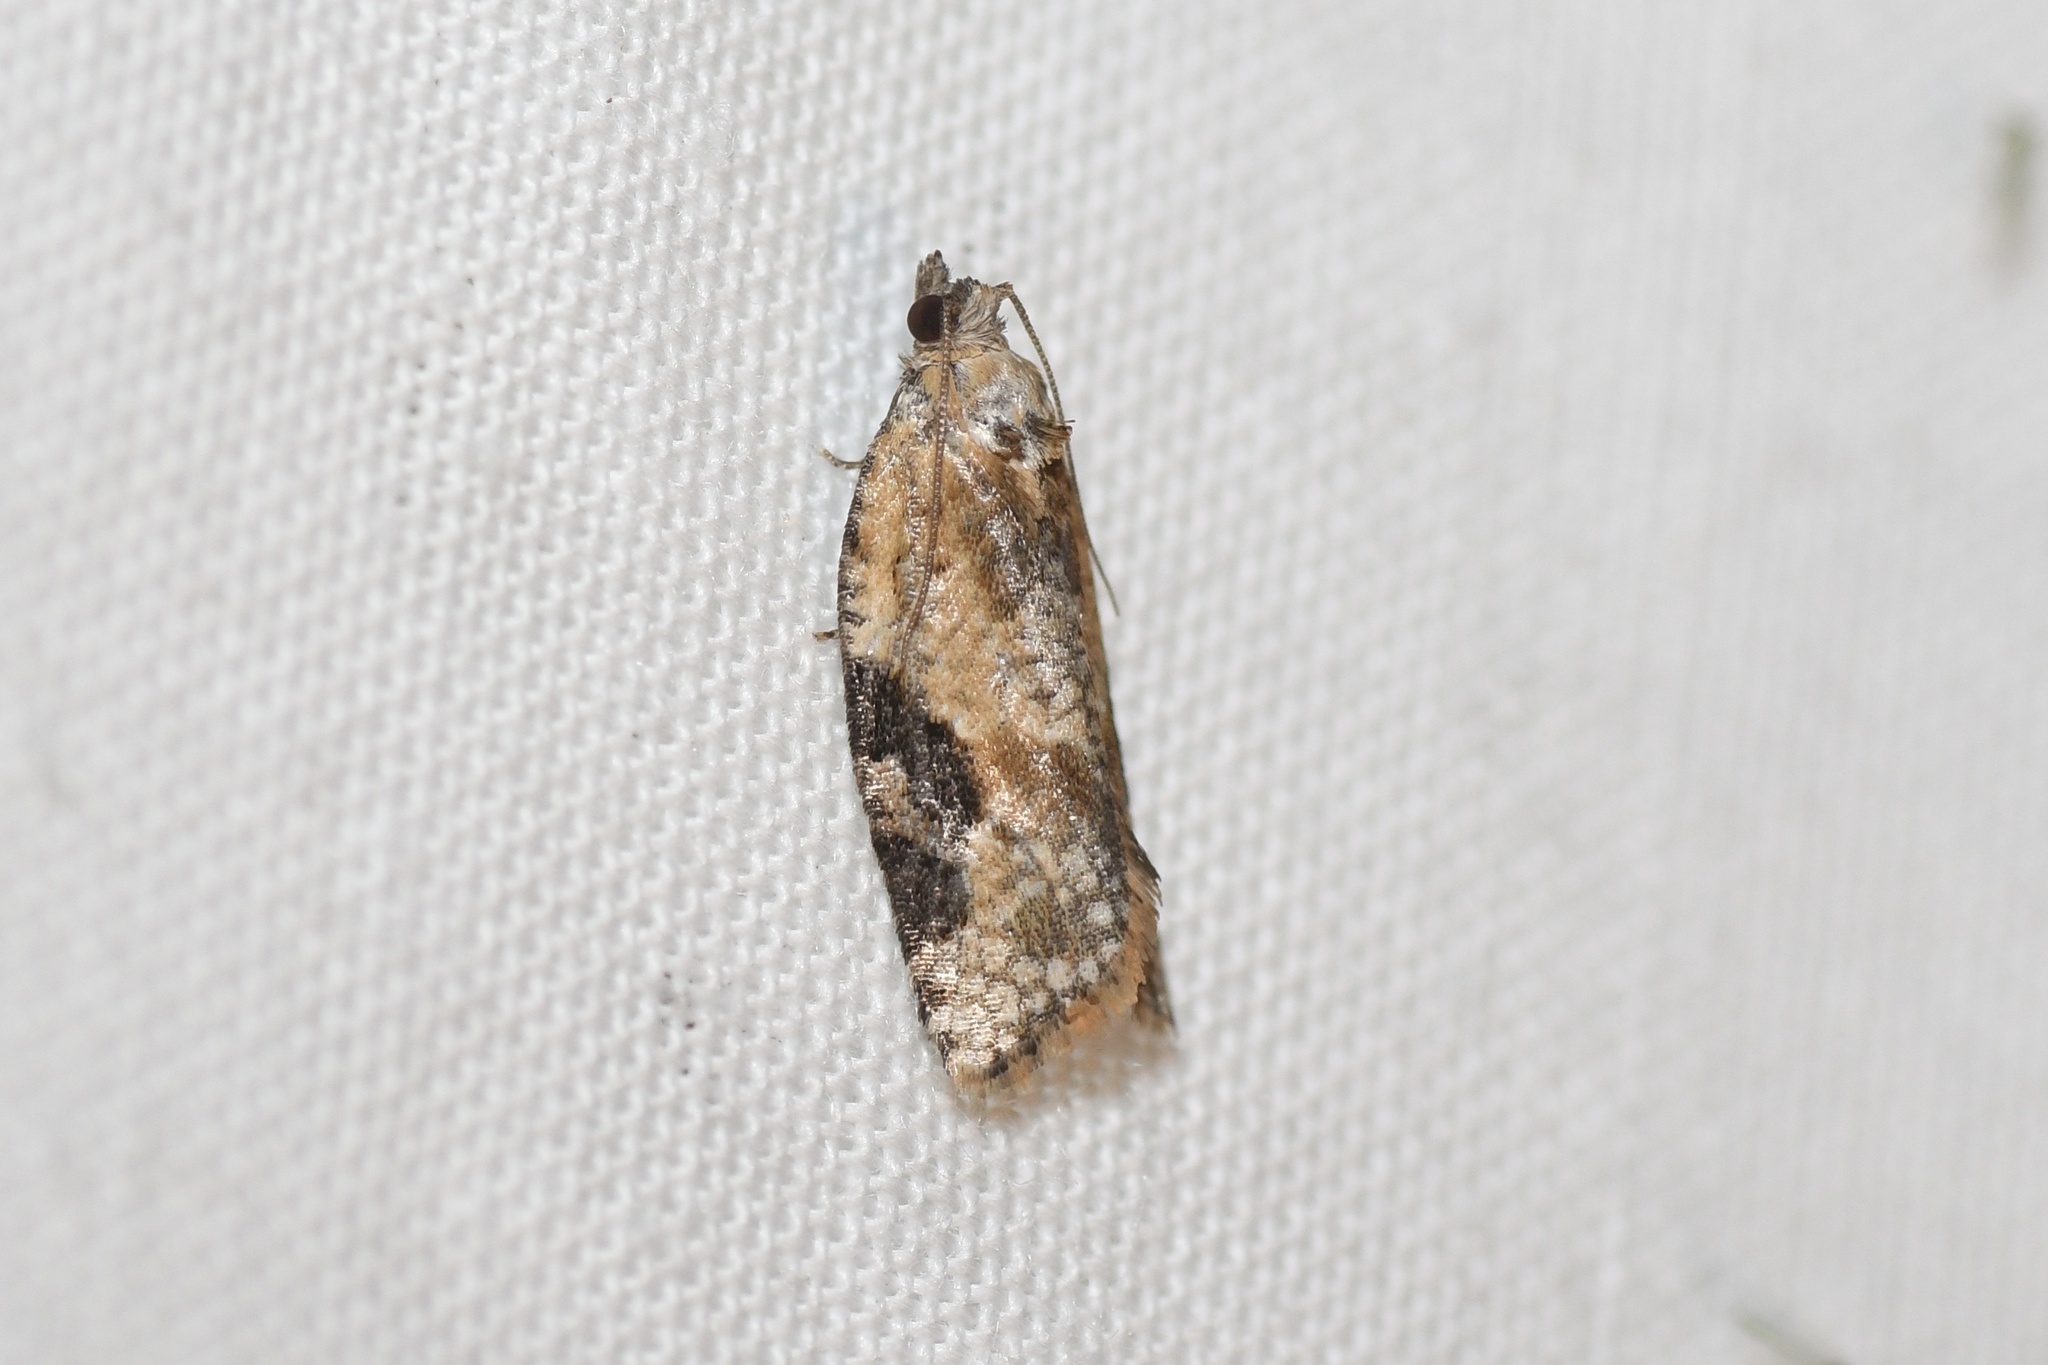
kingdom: Animalia
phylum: Arthropoda
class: Insecta
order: Lepidoptera
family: Tortricidae
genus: Argyrotaenia
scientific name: Argyrotaenia mariana
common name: Gray-banded leafroller moth
